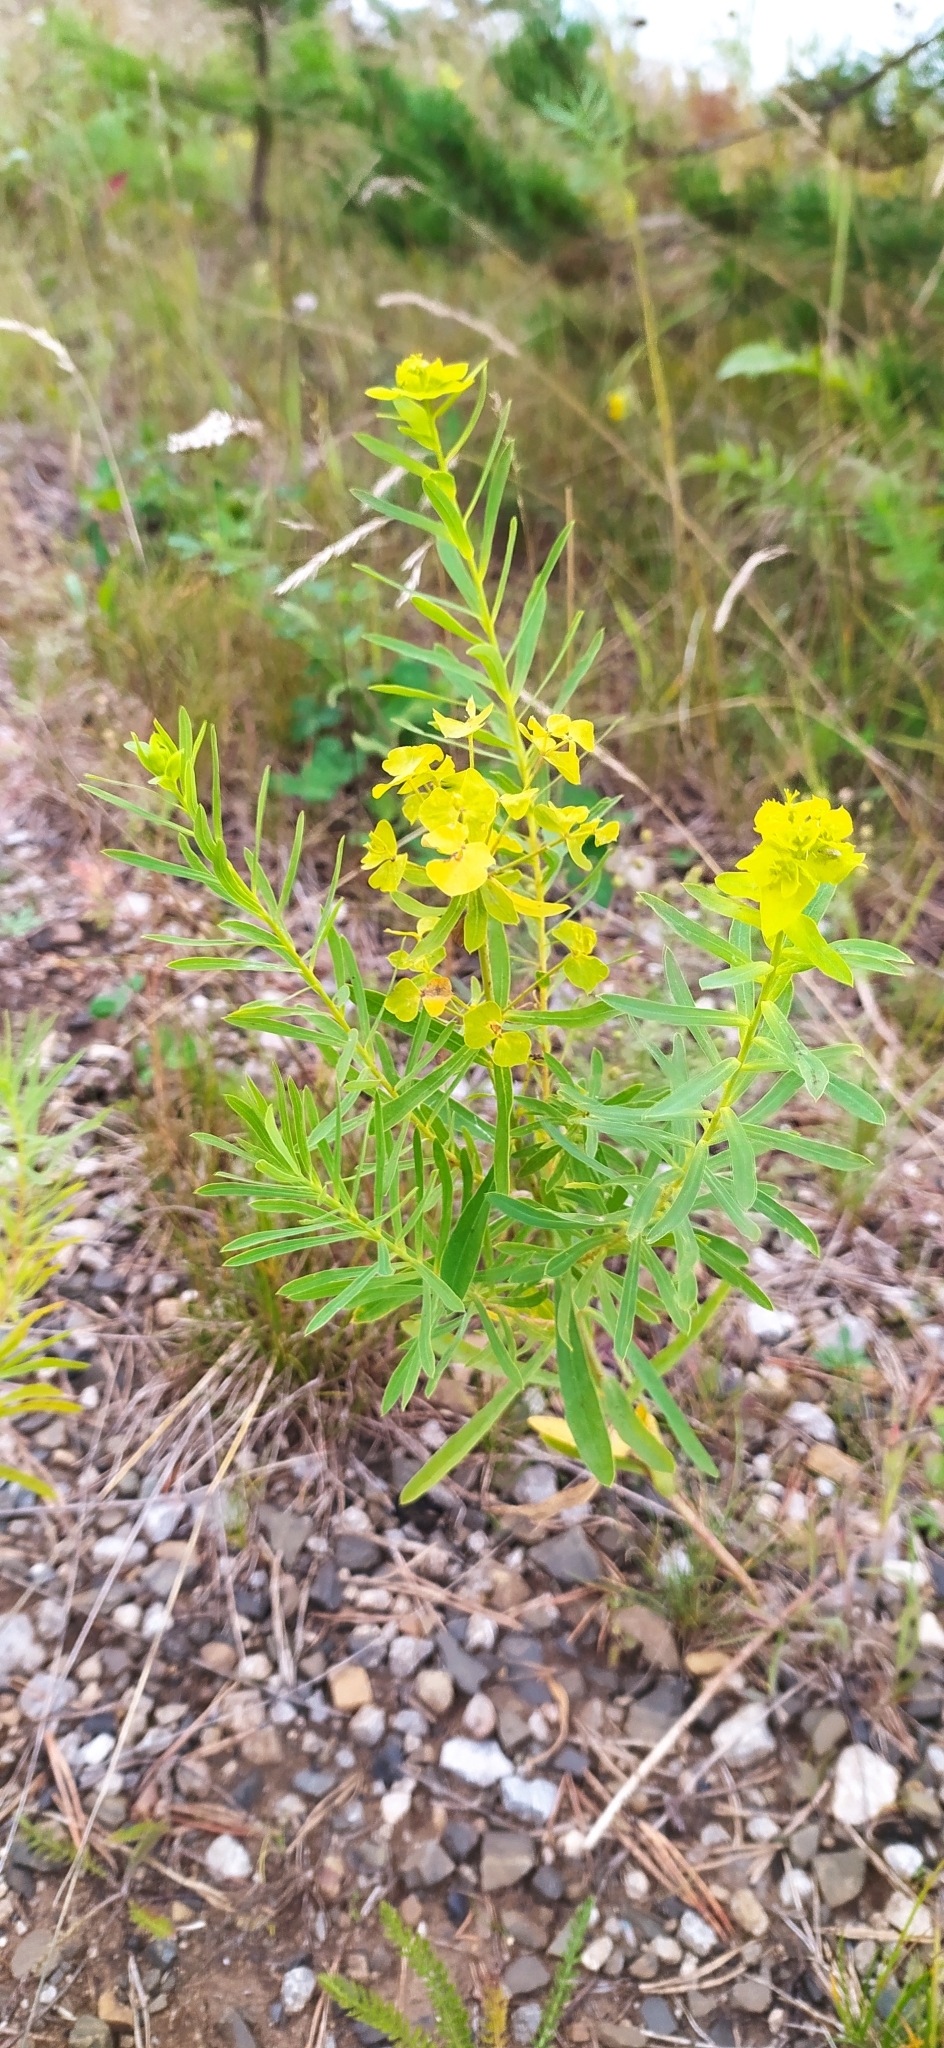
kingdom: Plantae
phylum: Tracheophyta
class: Magnoliopsida
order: Malpighiales
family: Euphorbiaceae
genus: Euphorbia
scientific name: Euphorbia virgata
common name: Leafy spurge
